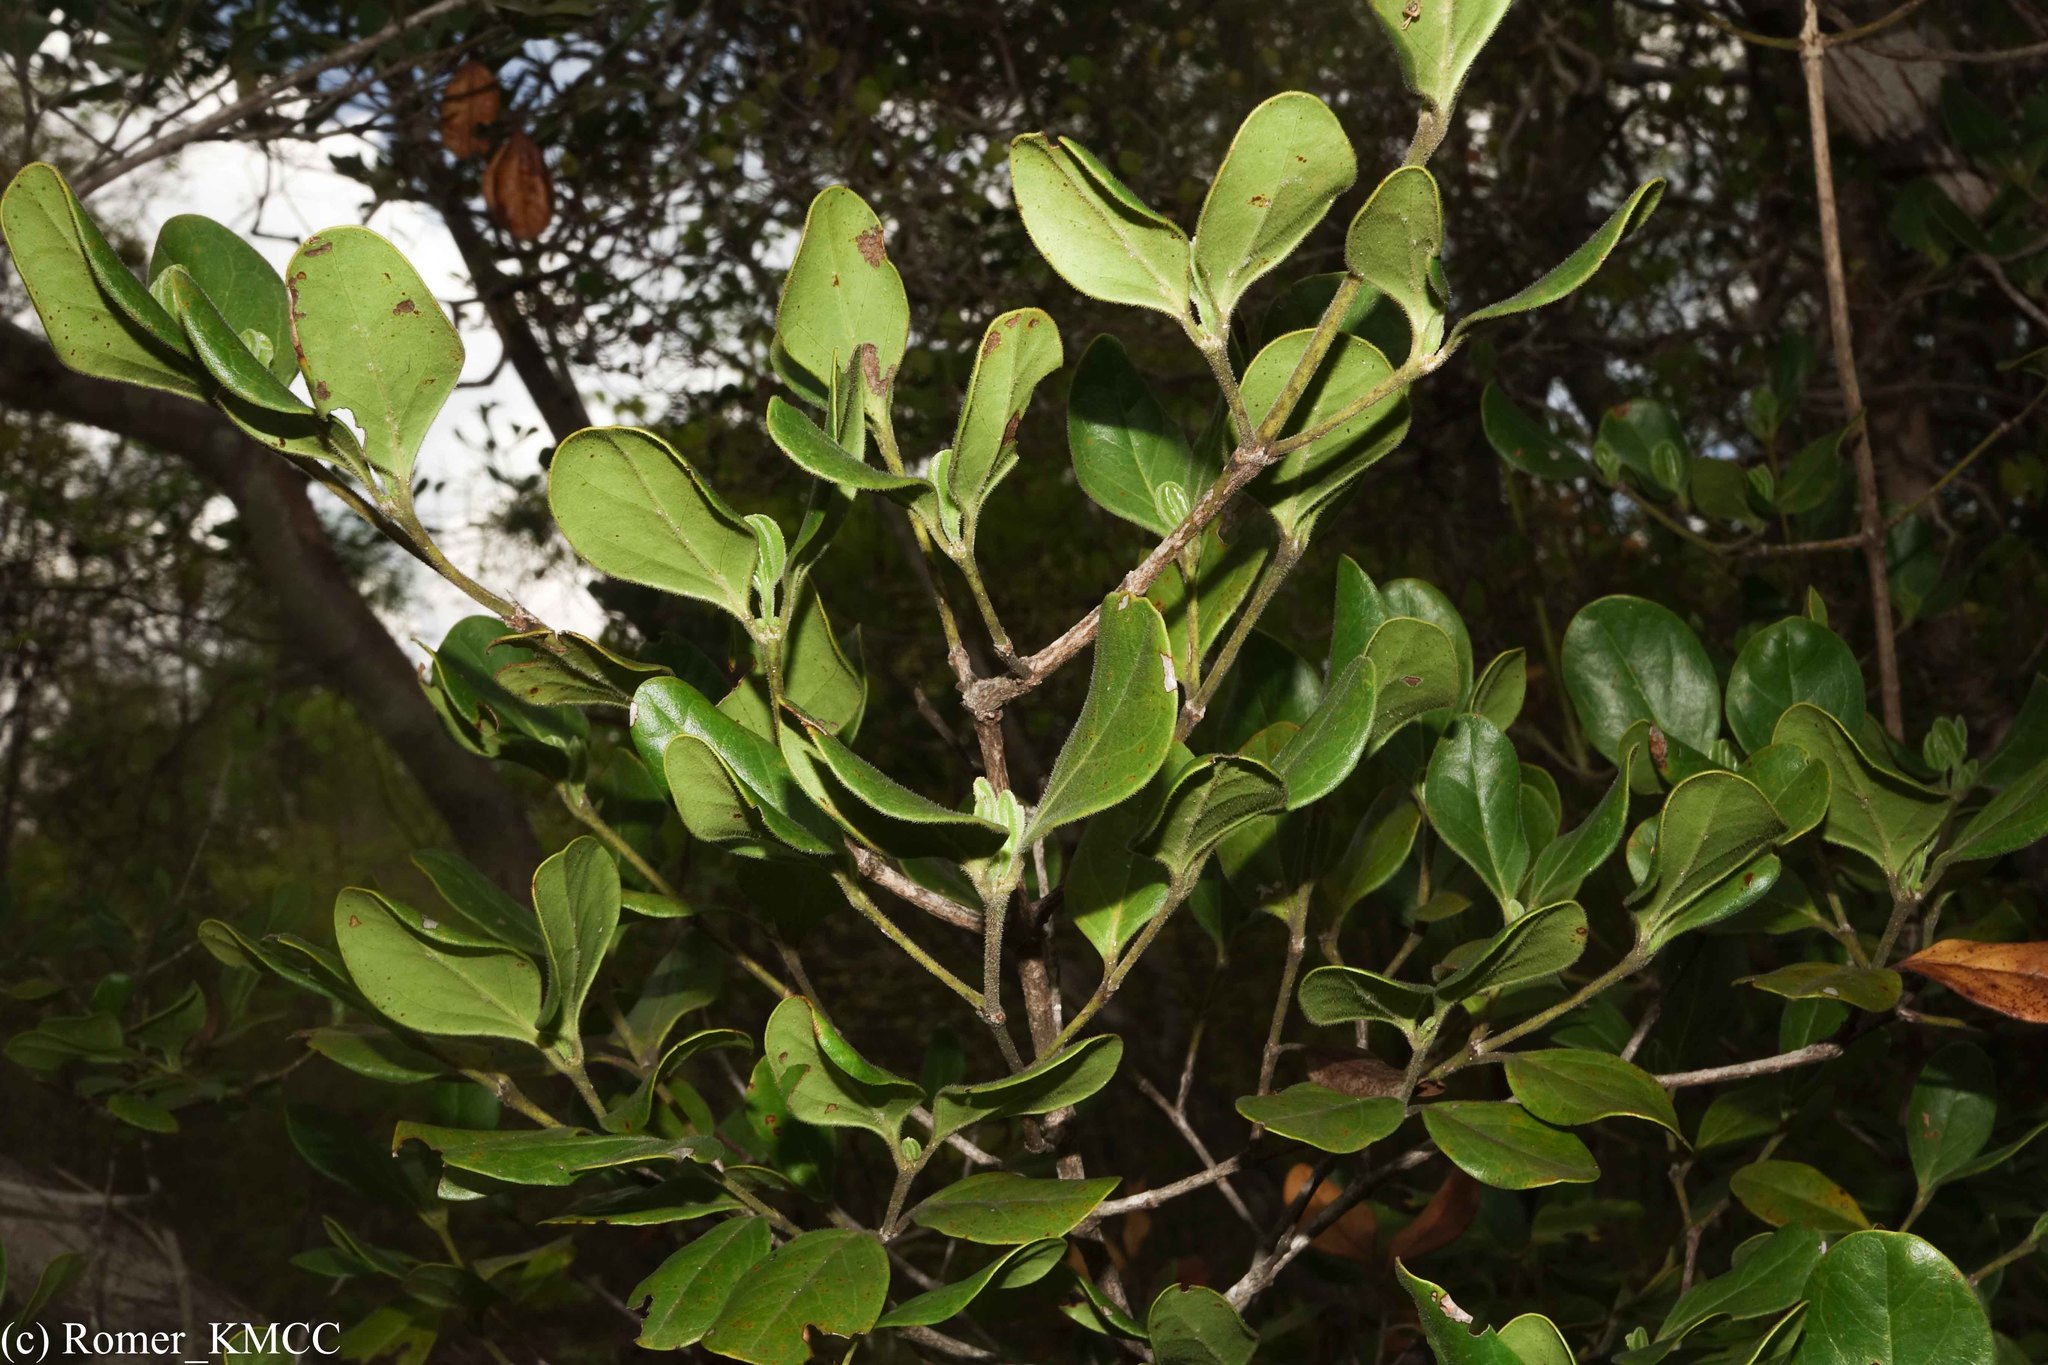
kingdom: Plantae
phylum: Tracheophyta
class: Magnoliopsida
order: Gentianales
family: Rubiaceae
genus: Psydrax
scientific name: Psydrax bathieanus
